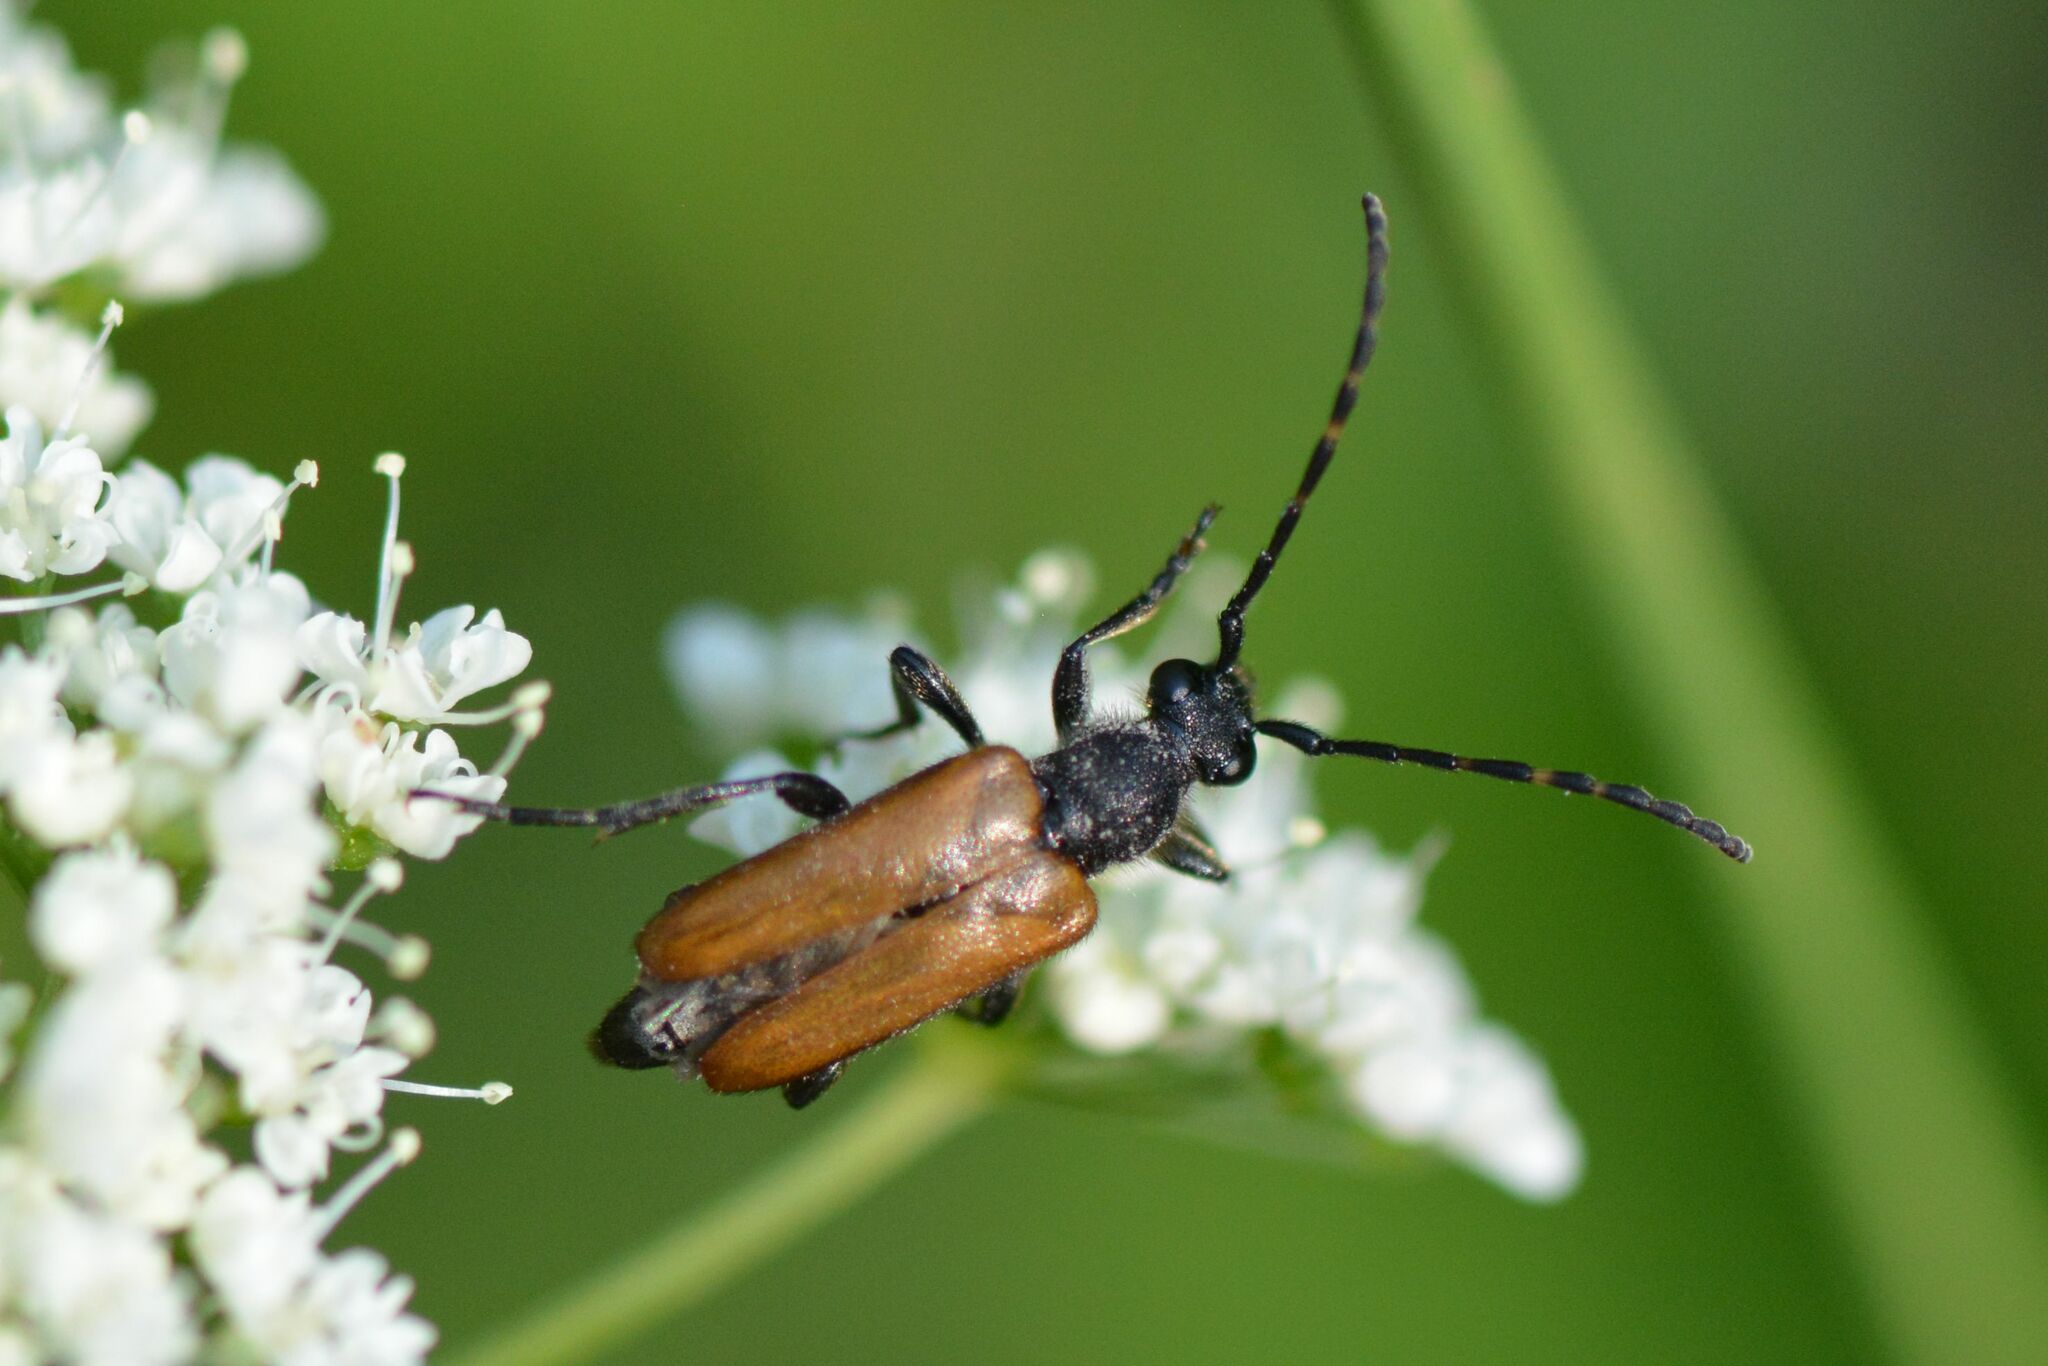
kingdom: Animalia
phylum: Arthropoda
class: Insecta
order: Coleoptera
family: Cerambycidae
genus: Paracorymbia
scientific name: Paracorymbia maculicornis
